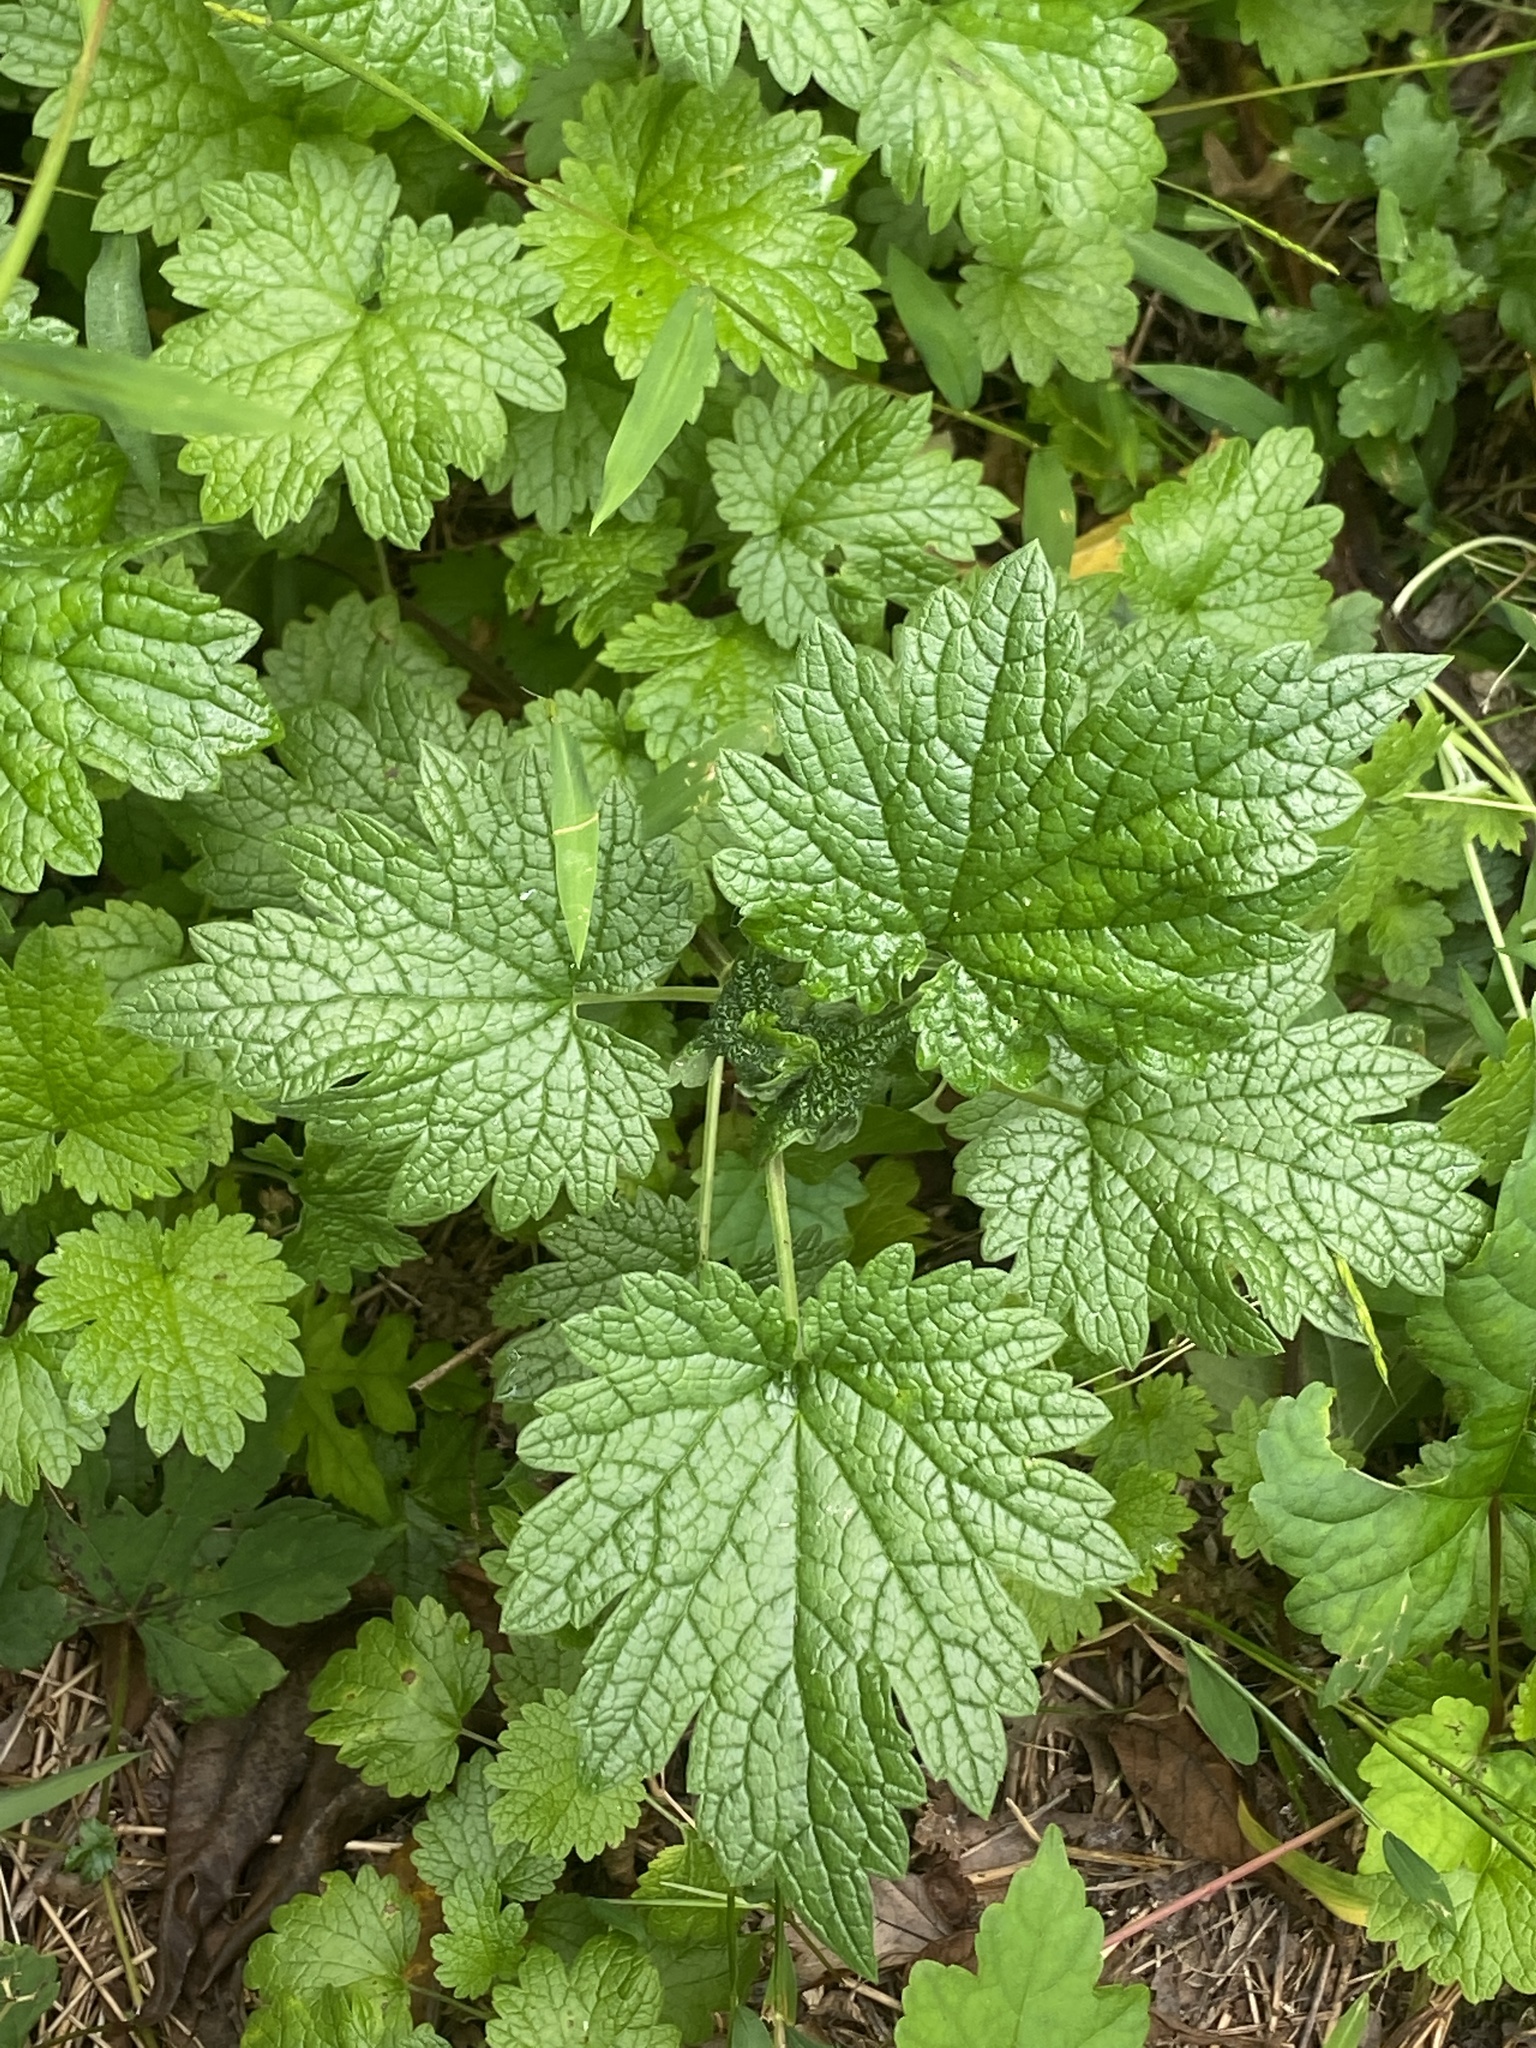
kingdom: Plantae
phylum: Tracheophyta
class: Magnoliopsida
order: Lamiales
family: Lamiaceae
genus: Leonurus
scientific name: Leonurus cardiaca
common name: Motherwort
